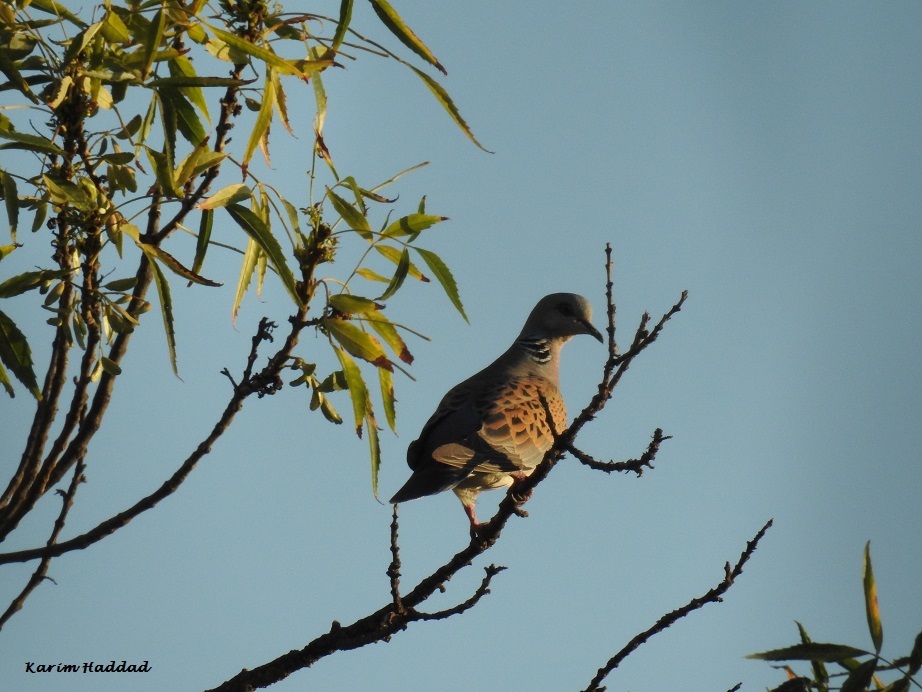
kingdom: Animalia
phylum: Chordata
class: Aves
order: Columbiformes
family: Columbidae
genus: Streptopelia
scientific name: Streptopelia turtur
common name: European turtle dove
